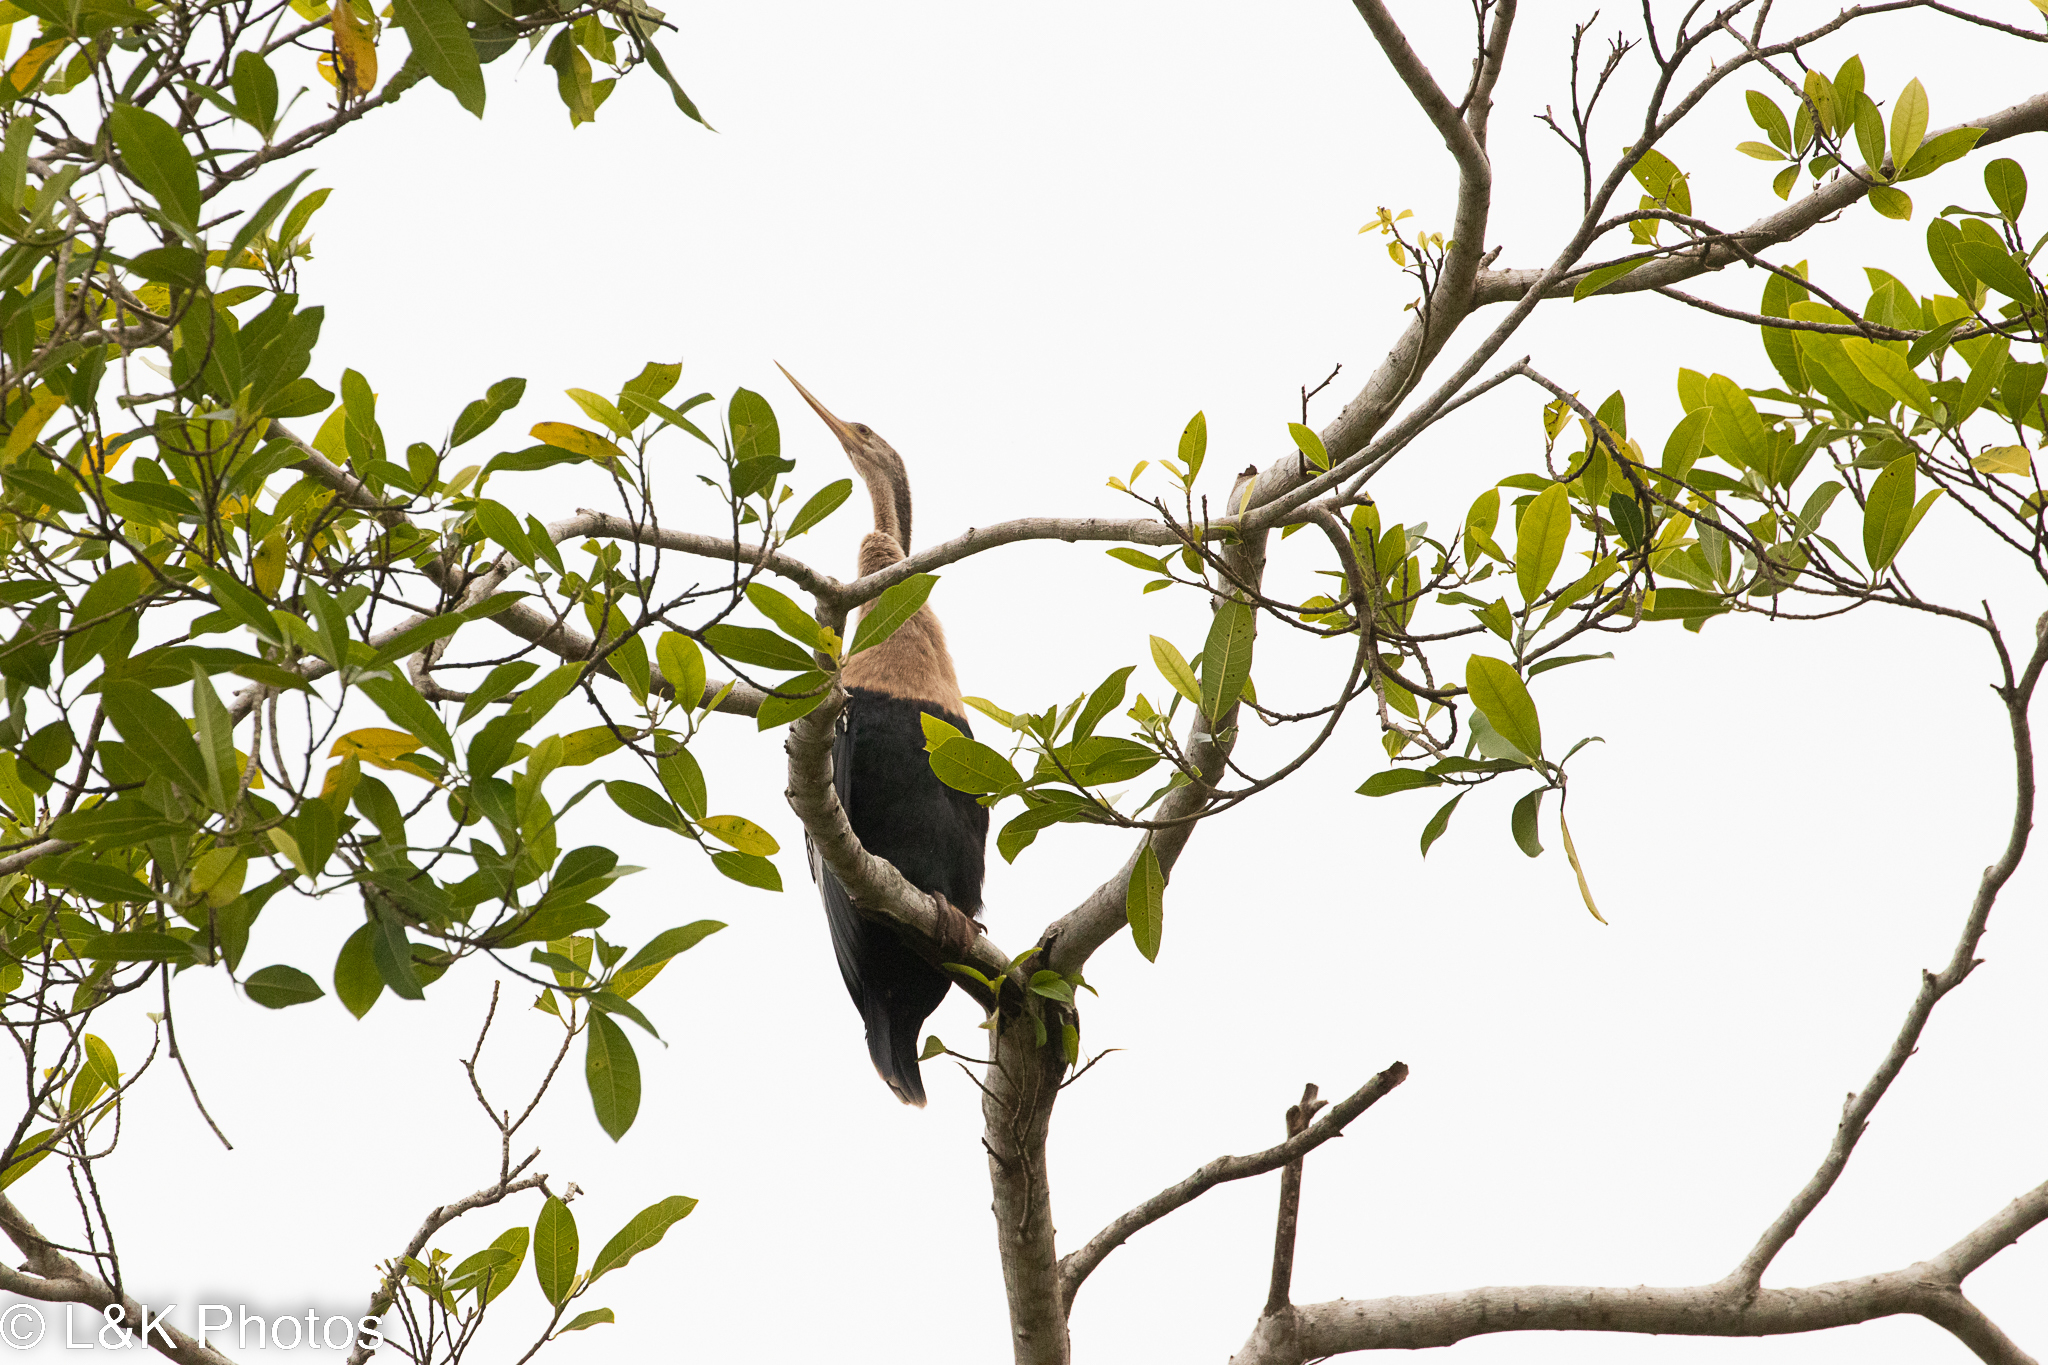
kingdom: Animalia
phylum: Chordata
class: Aves
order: Suliformes
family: Anhingidae
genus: Anhinga
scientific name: Anhinga anhinga
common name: Anhinga
